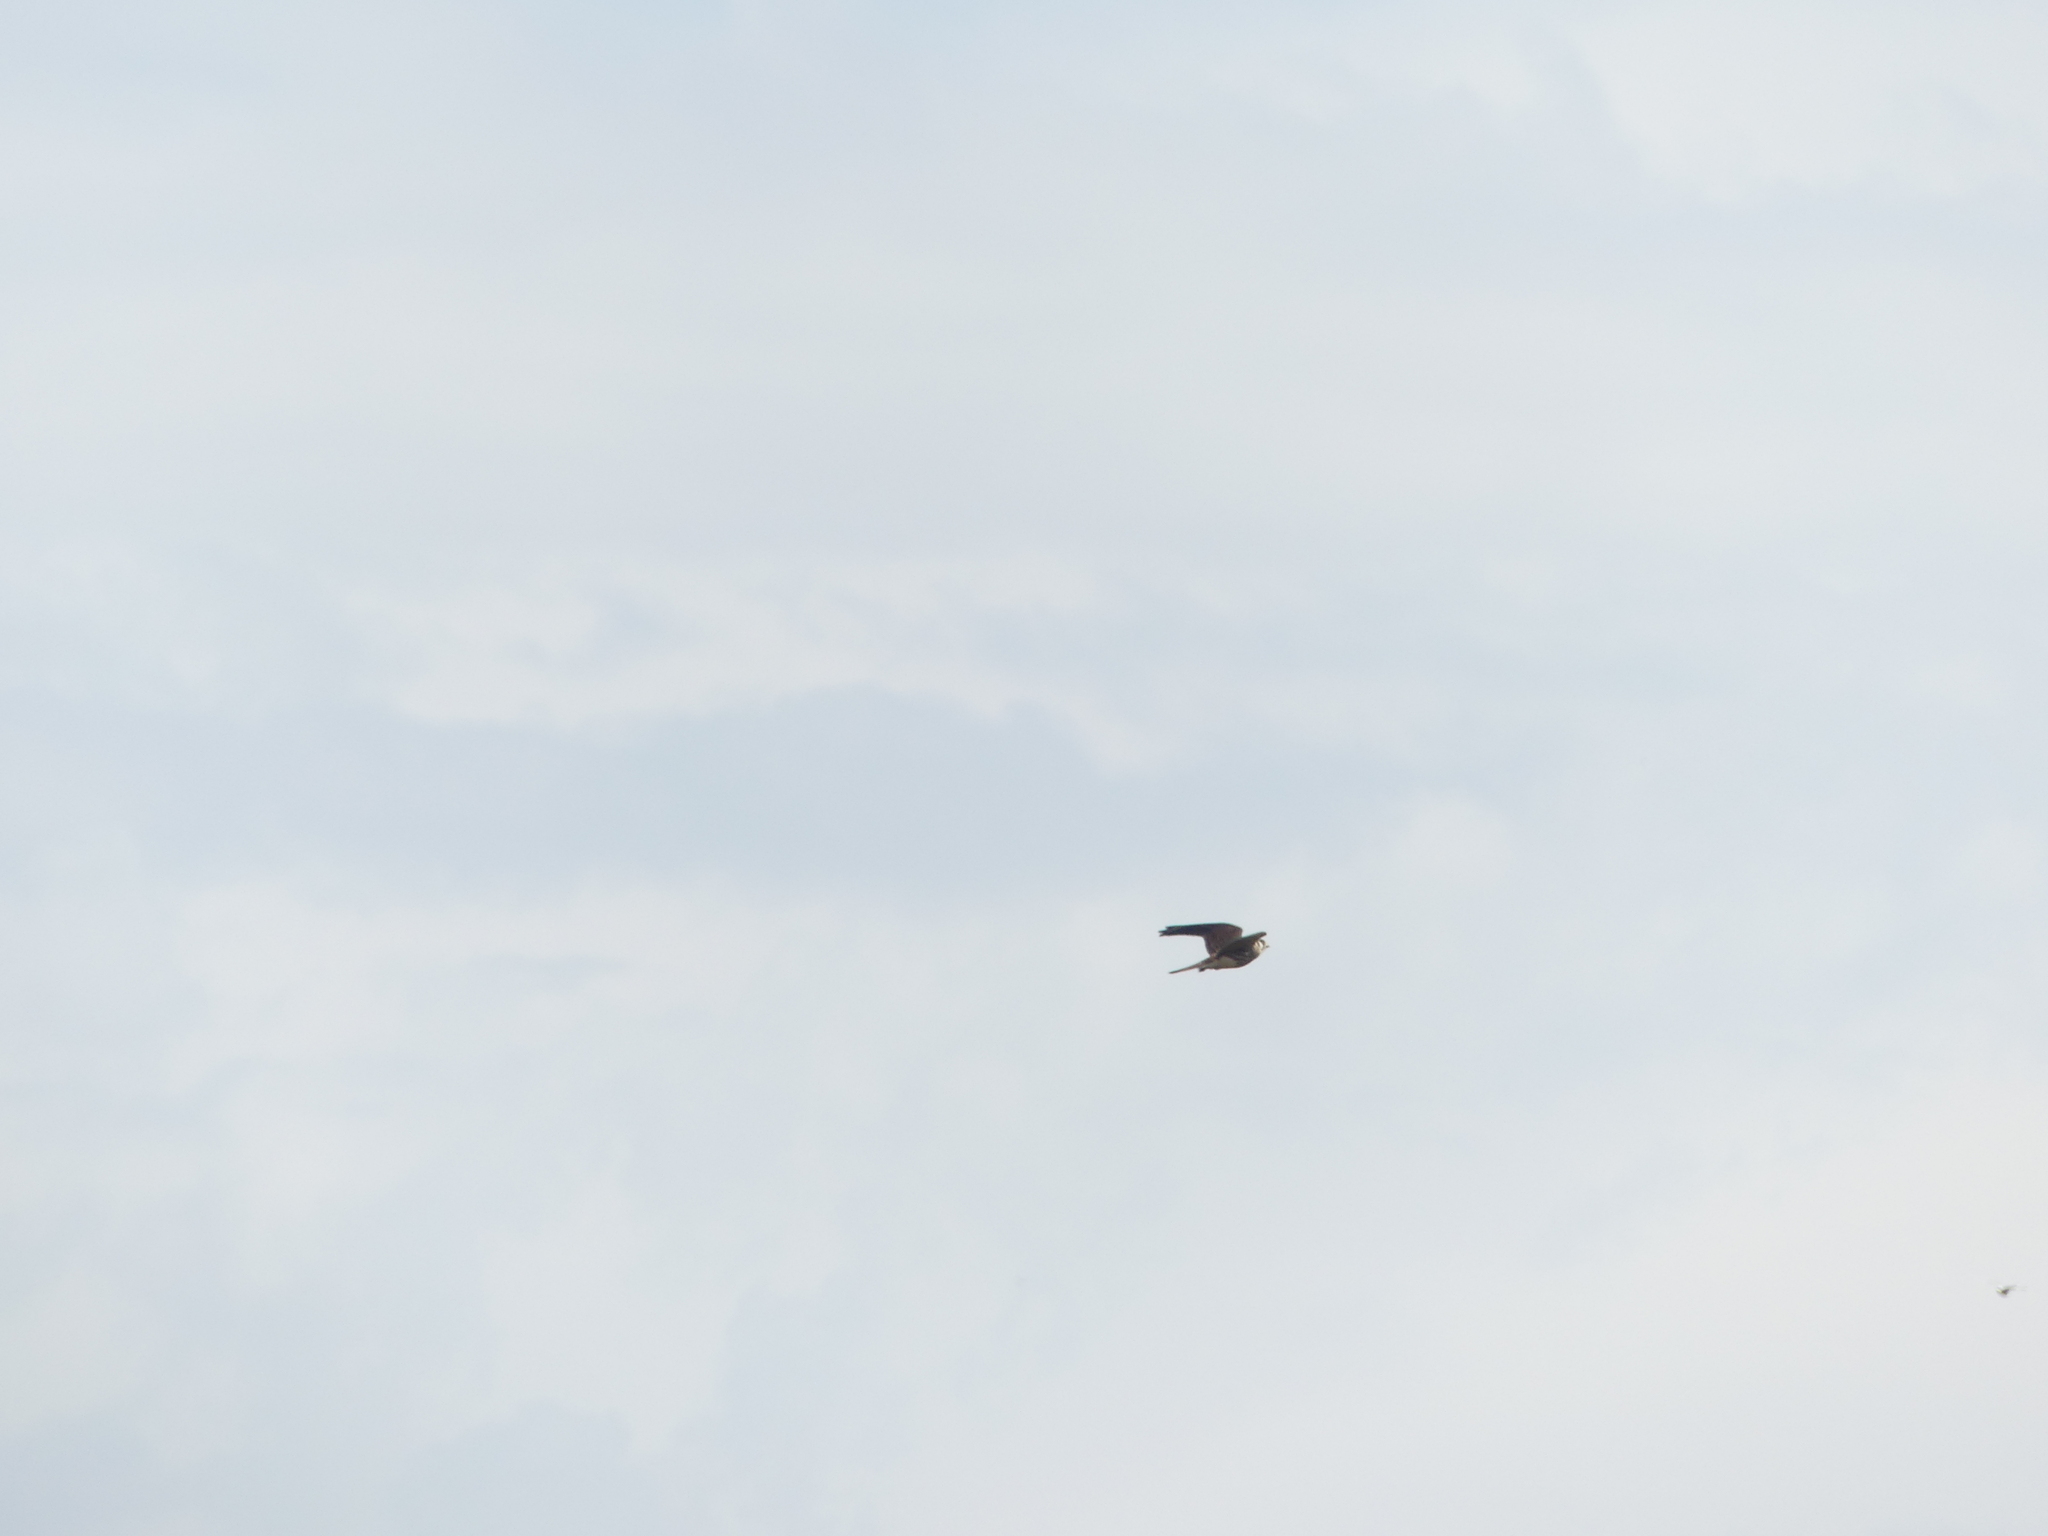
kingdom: Animalia
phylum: Chordata
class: Aves
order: Falconiformes
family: Falconidae
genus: Falco
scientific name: Falco sparverius
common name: American kestrel
